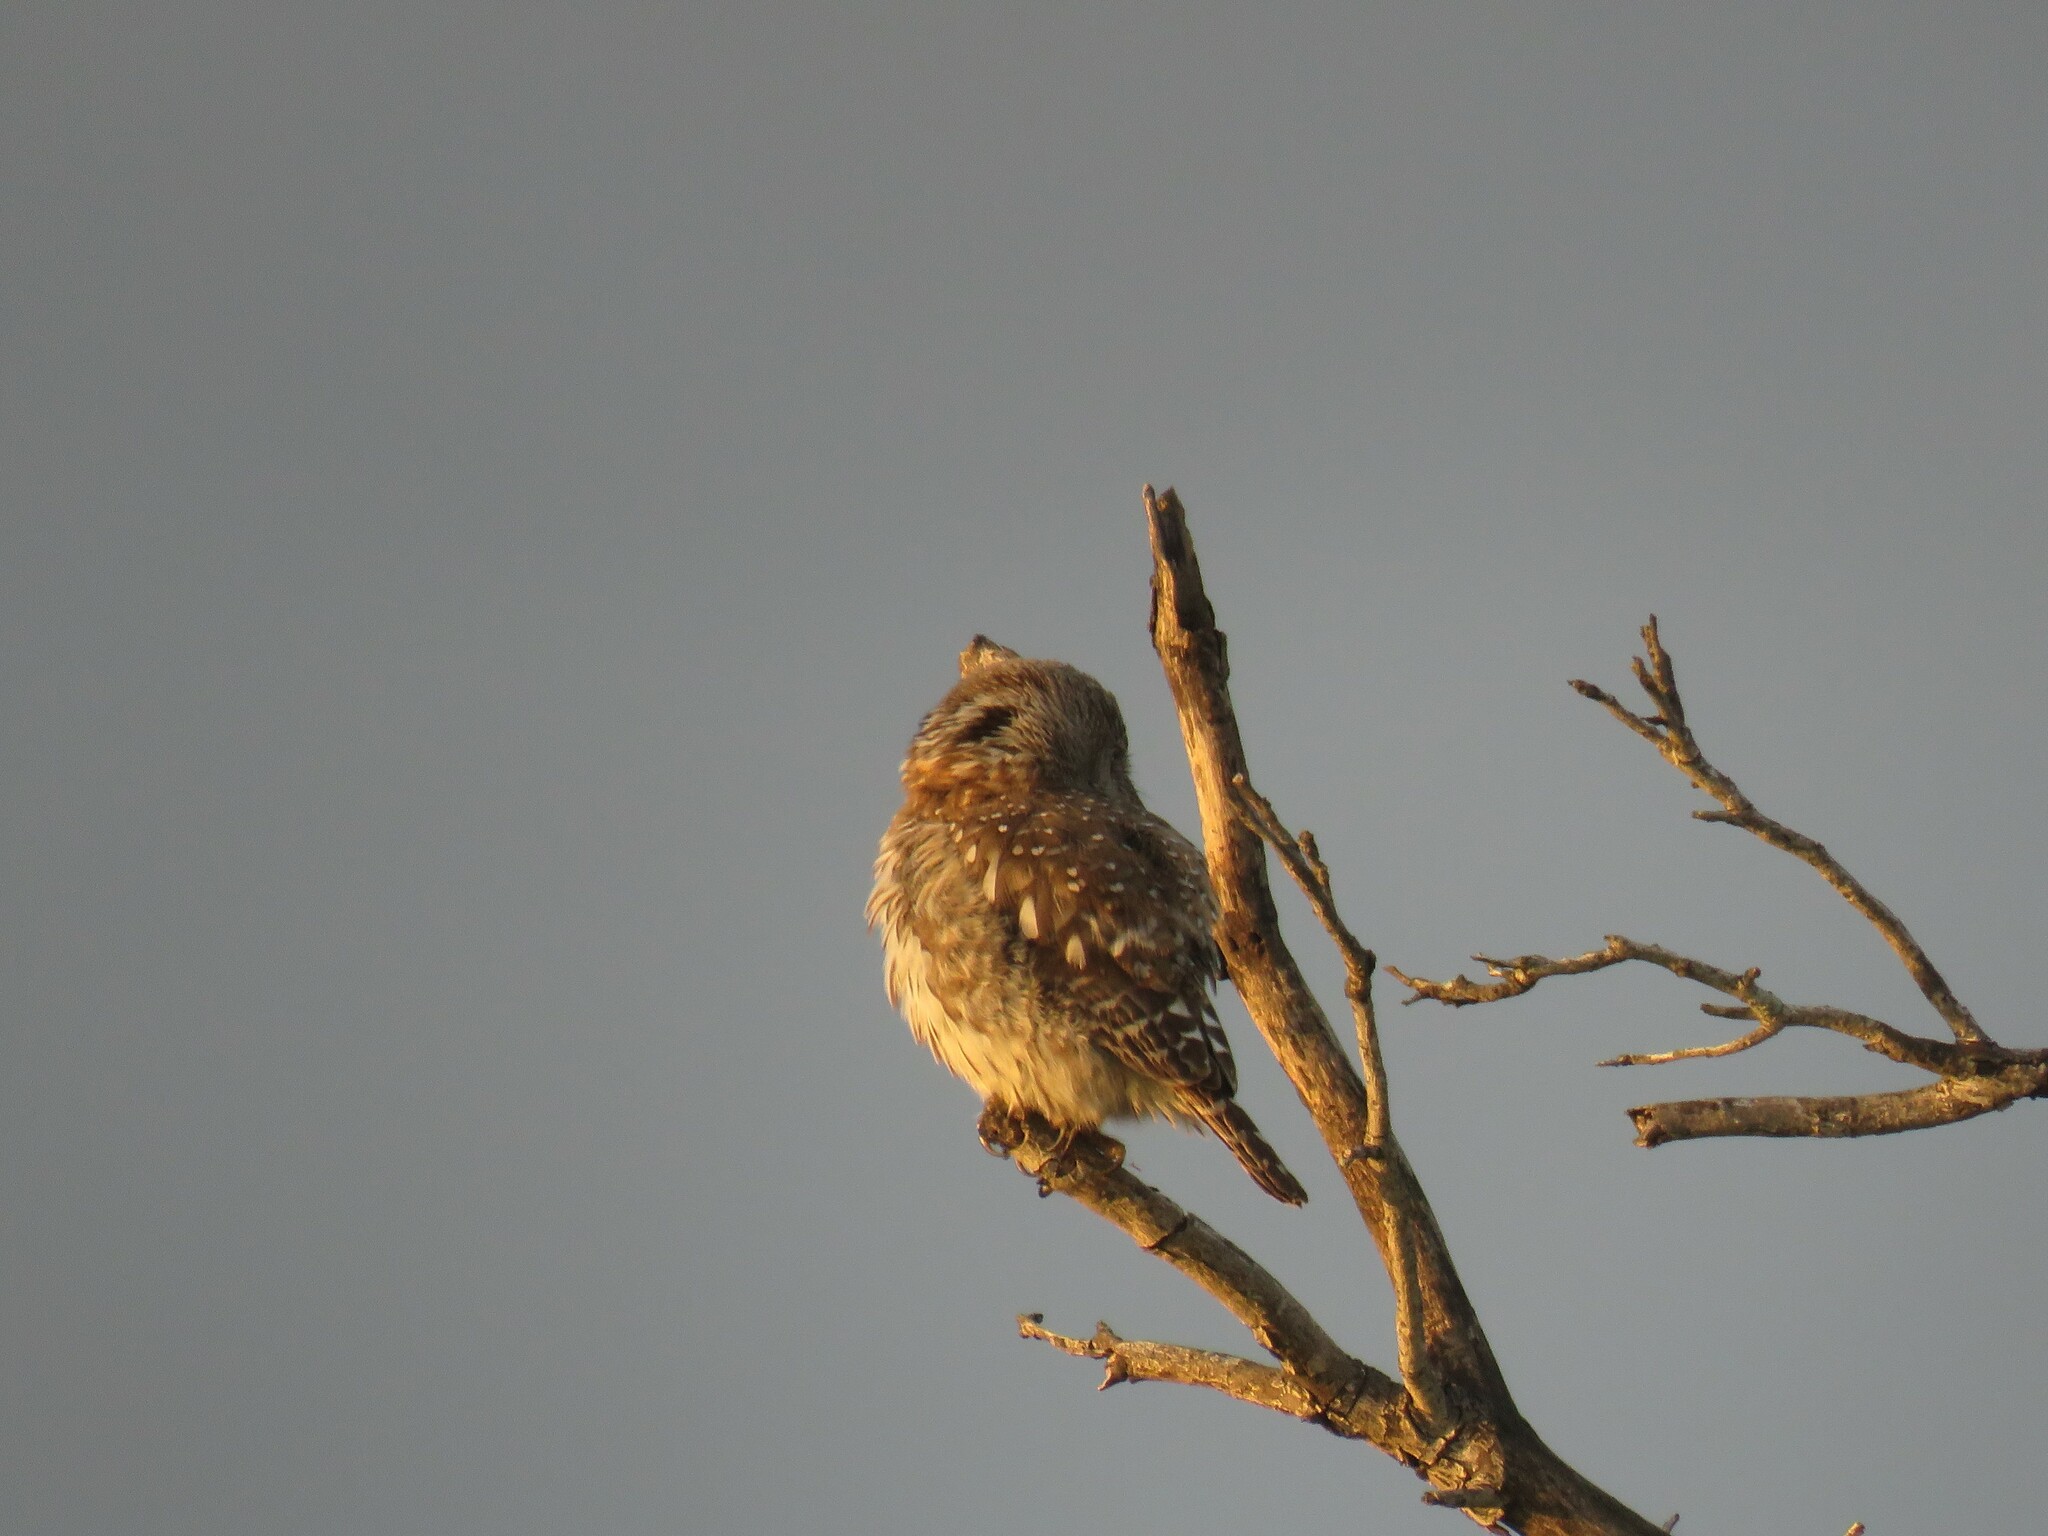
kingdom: Animalia
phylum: Chordata
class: Aves
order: Strigiformes
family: Strigidae
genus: Glaucidium
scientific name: Glaucidium perlatum
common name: Pearl-spotted owlet
